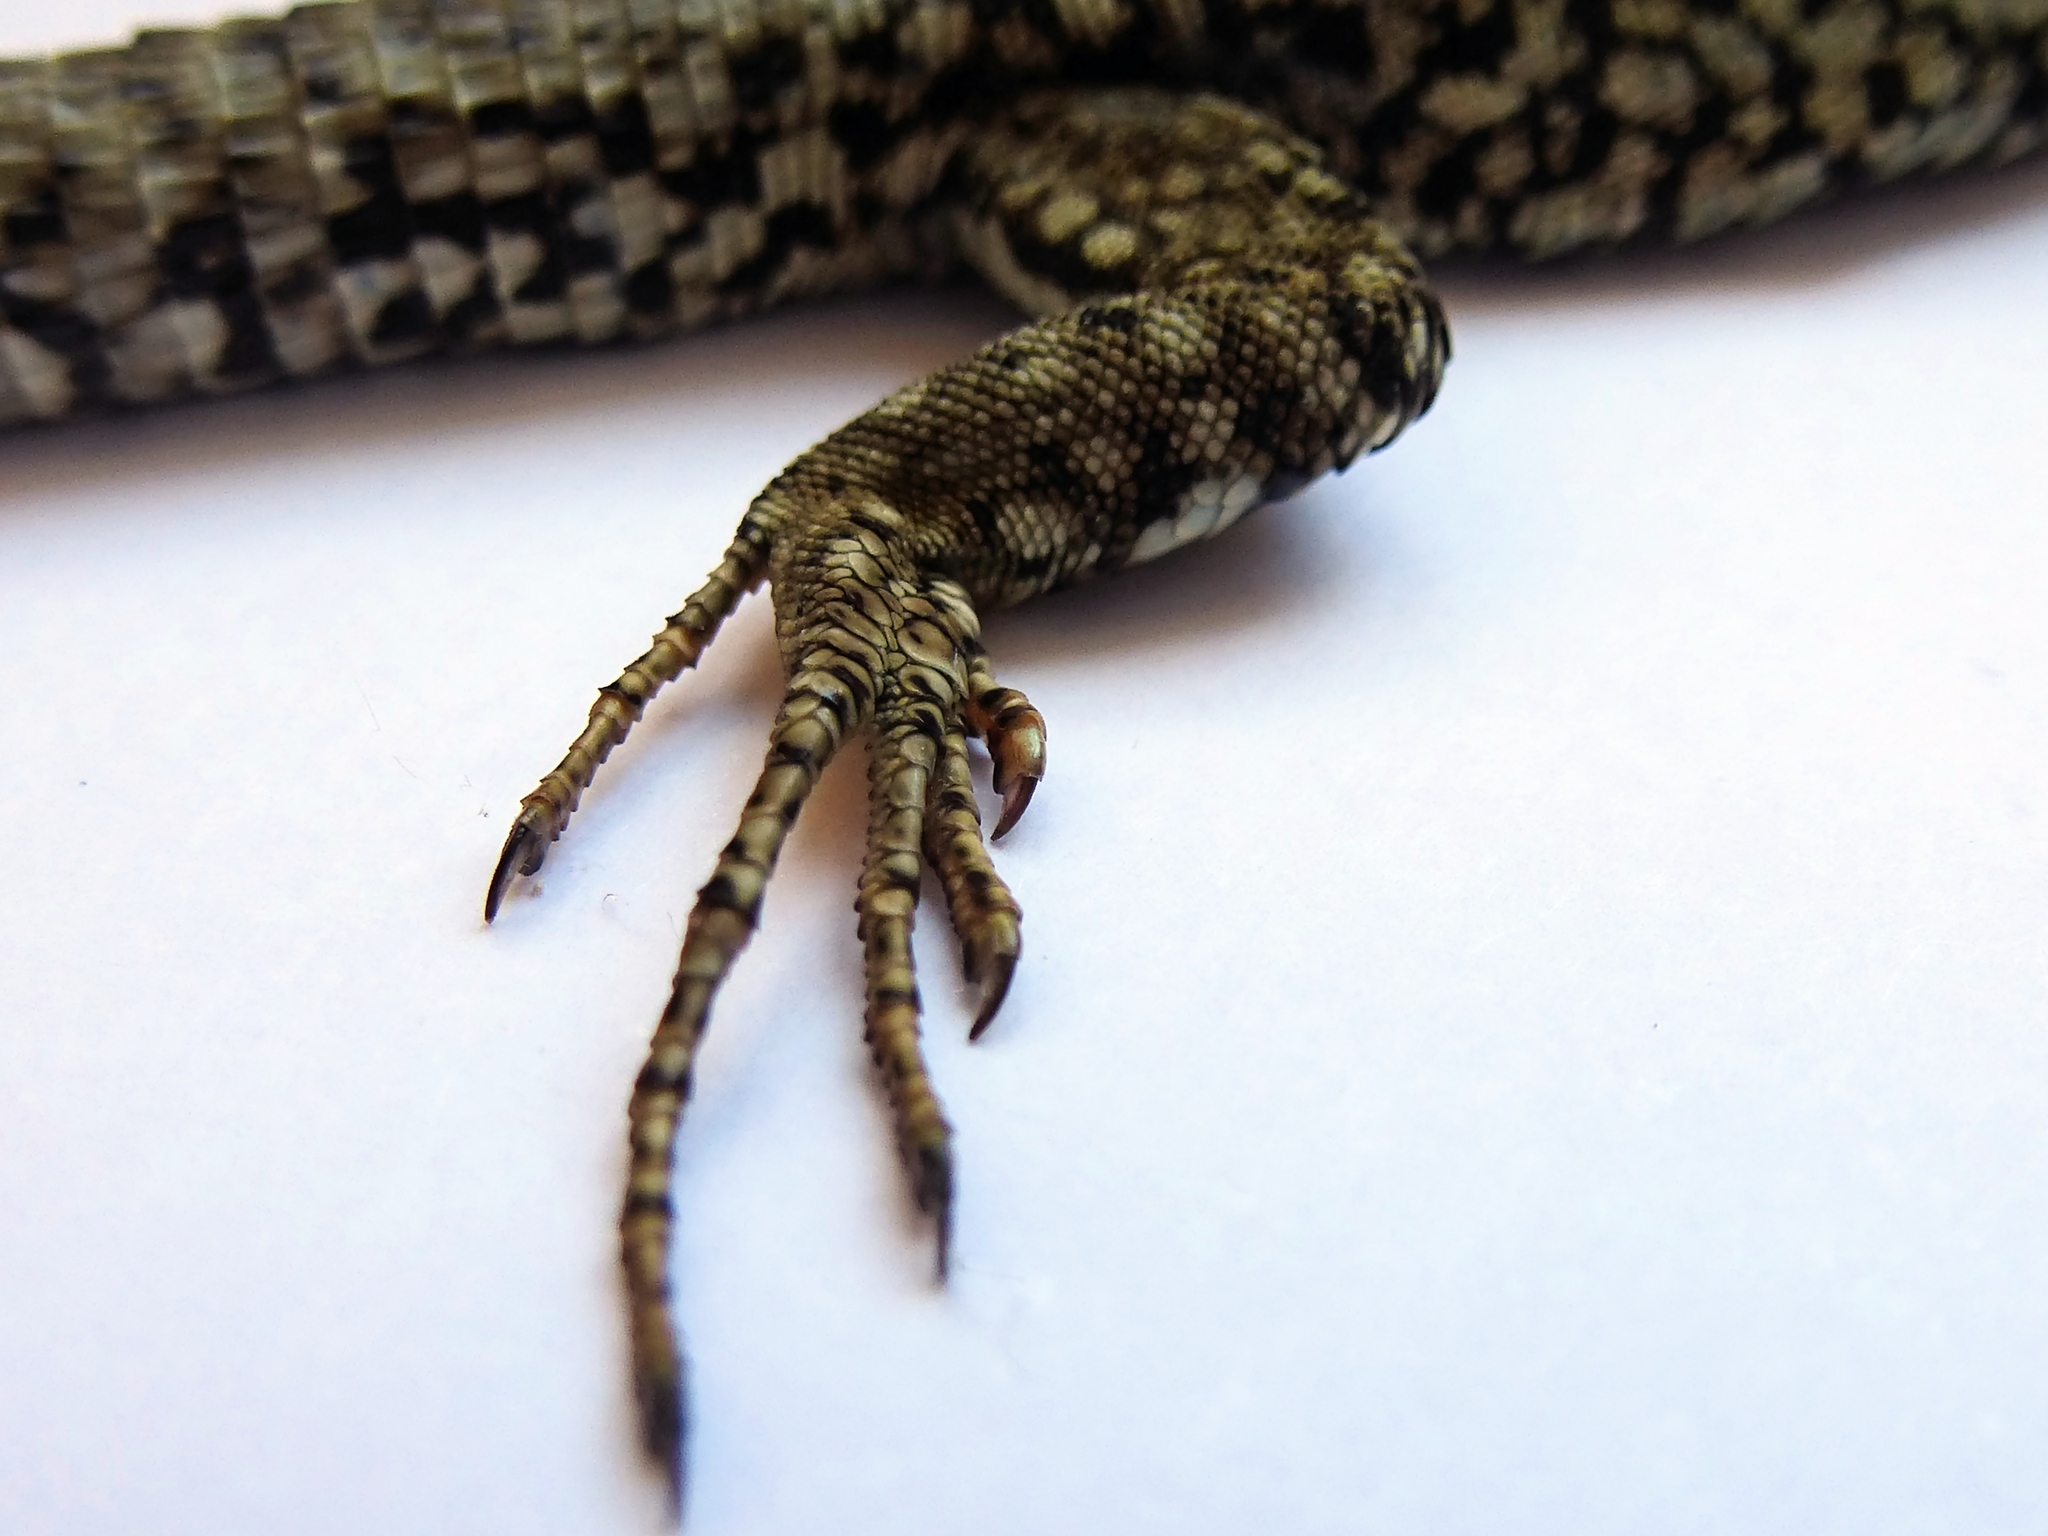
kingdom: Animalia
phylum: Chordata
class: Squamata
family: Lacertidae
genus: Podarcis
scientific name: Podarcis muralis
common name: Common wall lizard
